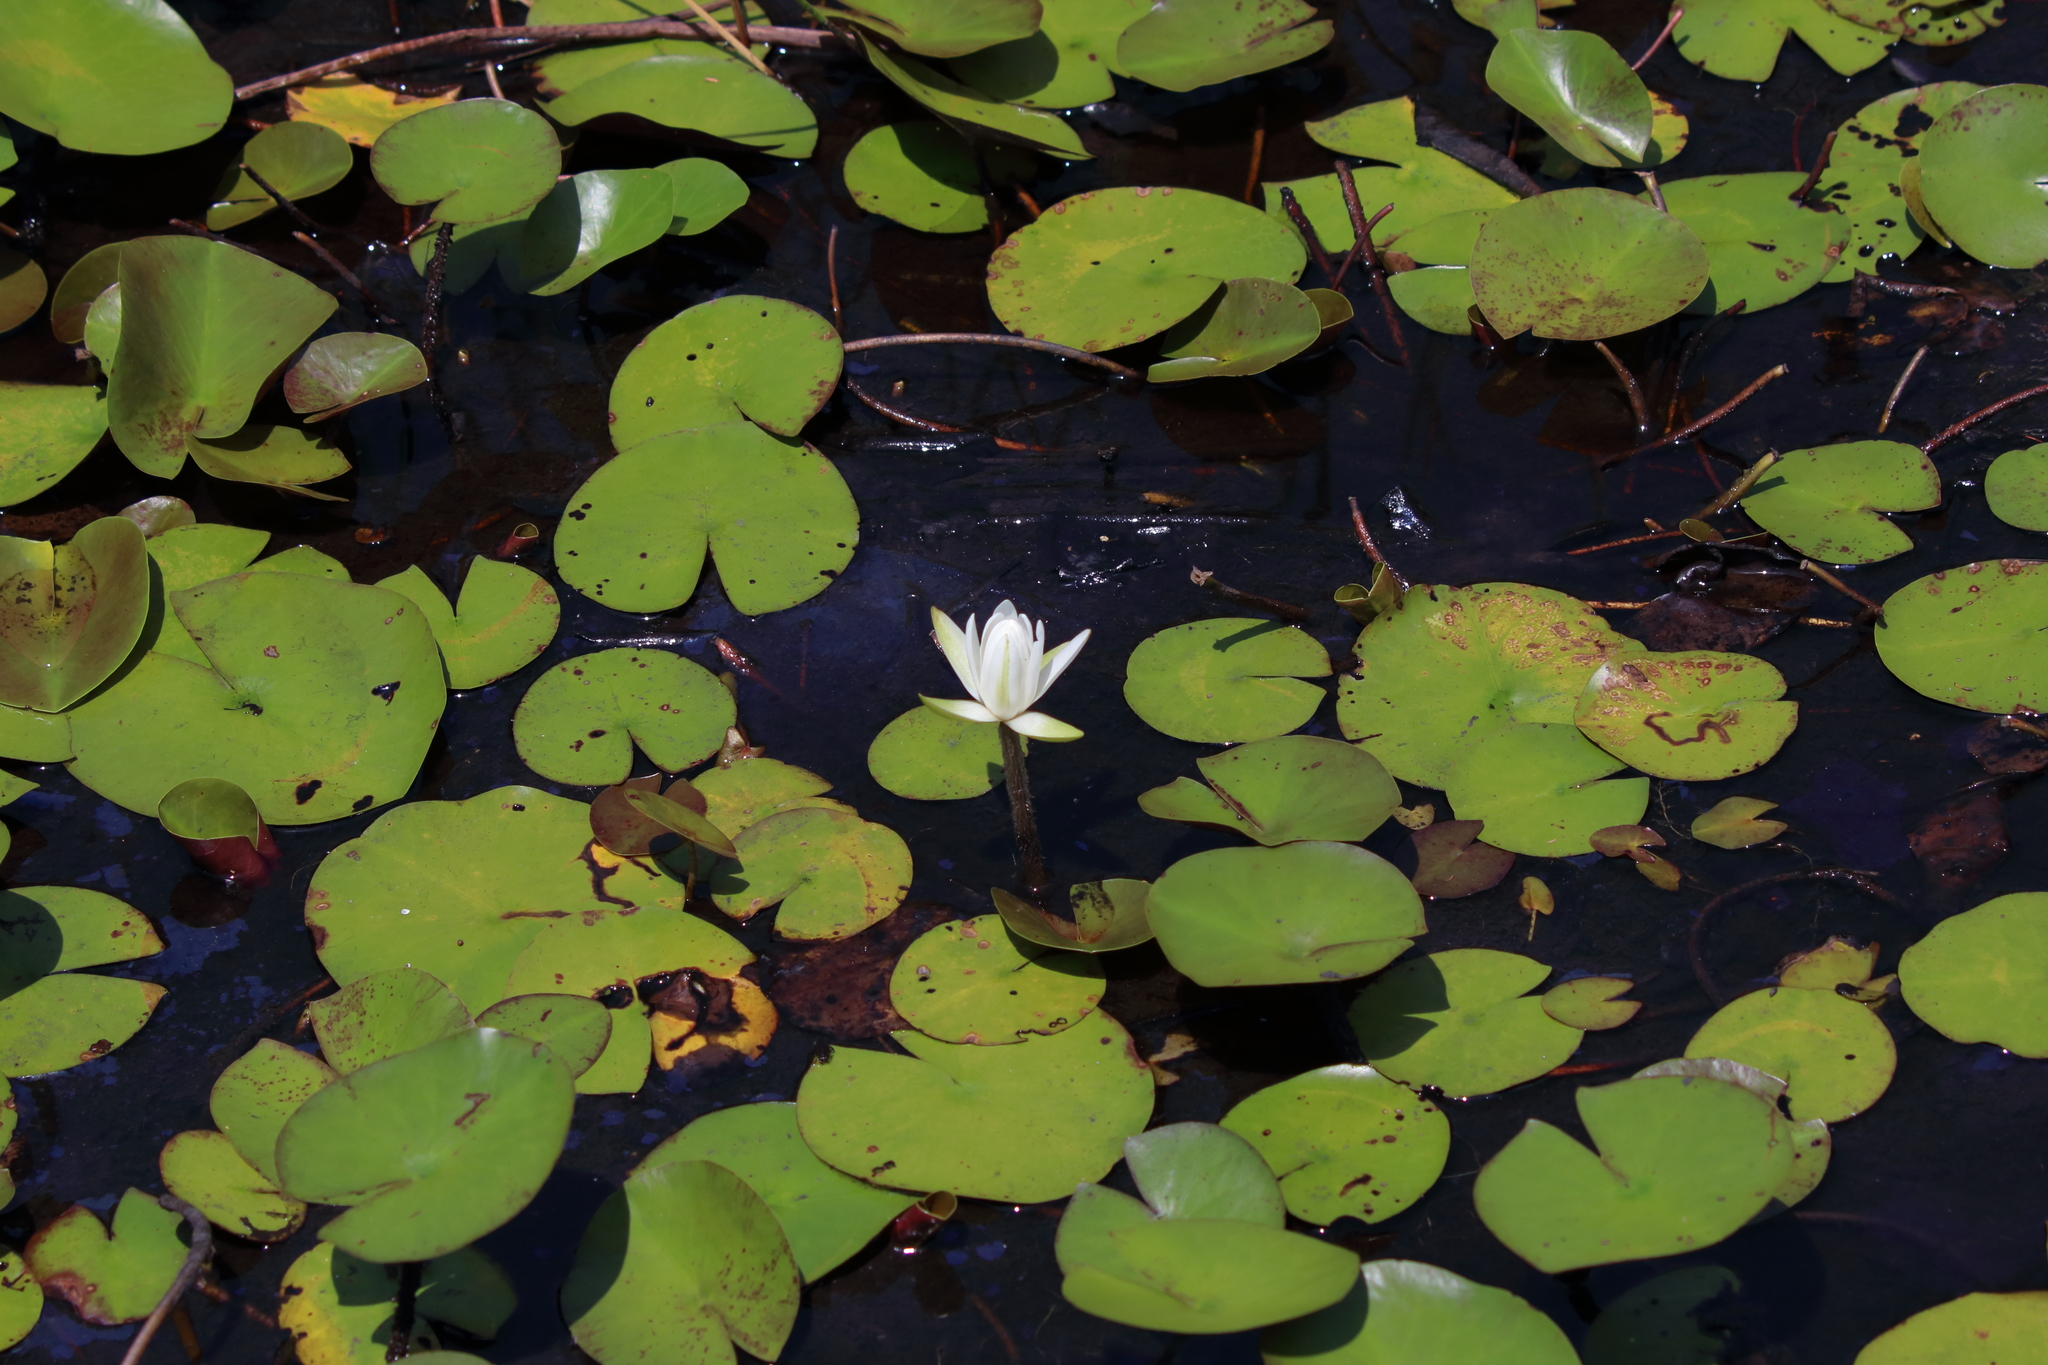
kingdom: Plantae
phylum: Tracheophyta
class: Magnoliopsida
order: Nymphaeales
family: Nymphaeaceae
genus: Nymphaea
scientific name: Nymphaea odorata
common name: Fragrant water-lily
